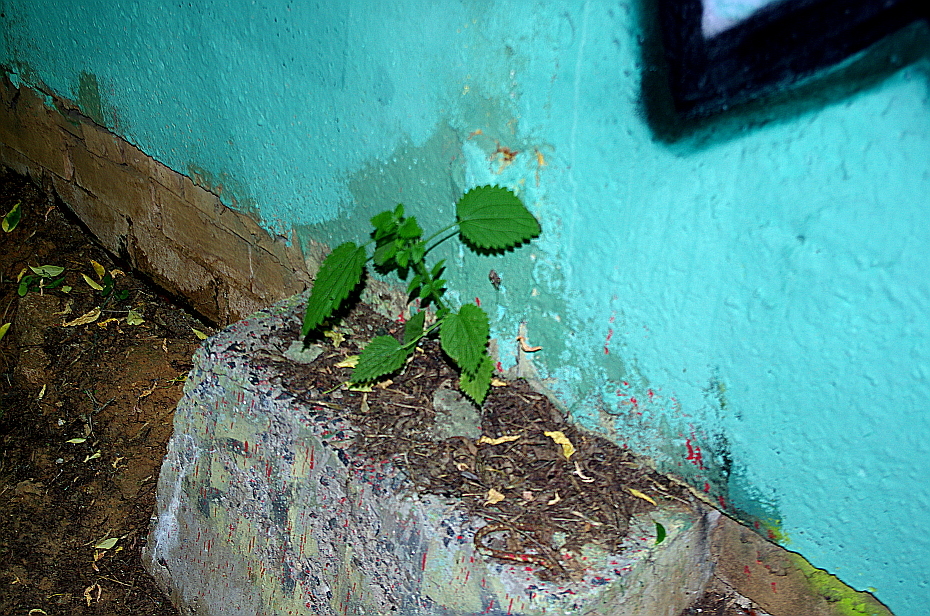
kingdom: Plantae
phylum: Tracheophyta
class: Magnoliopsida
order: Rosales
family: Urticaceae
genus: Urtica
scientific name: Urtica dioica
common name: Common nettle
